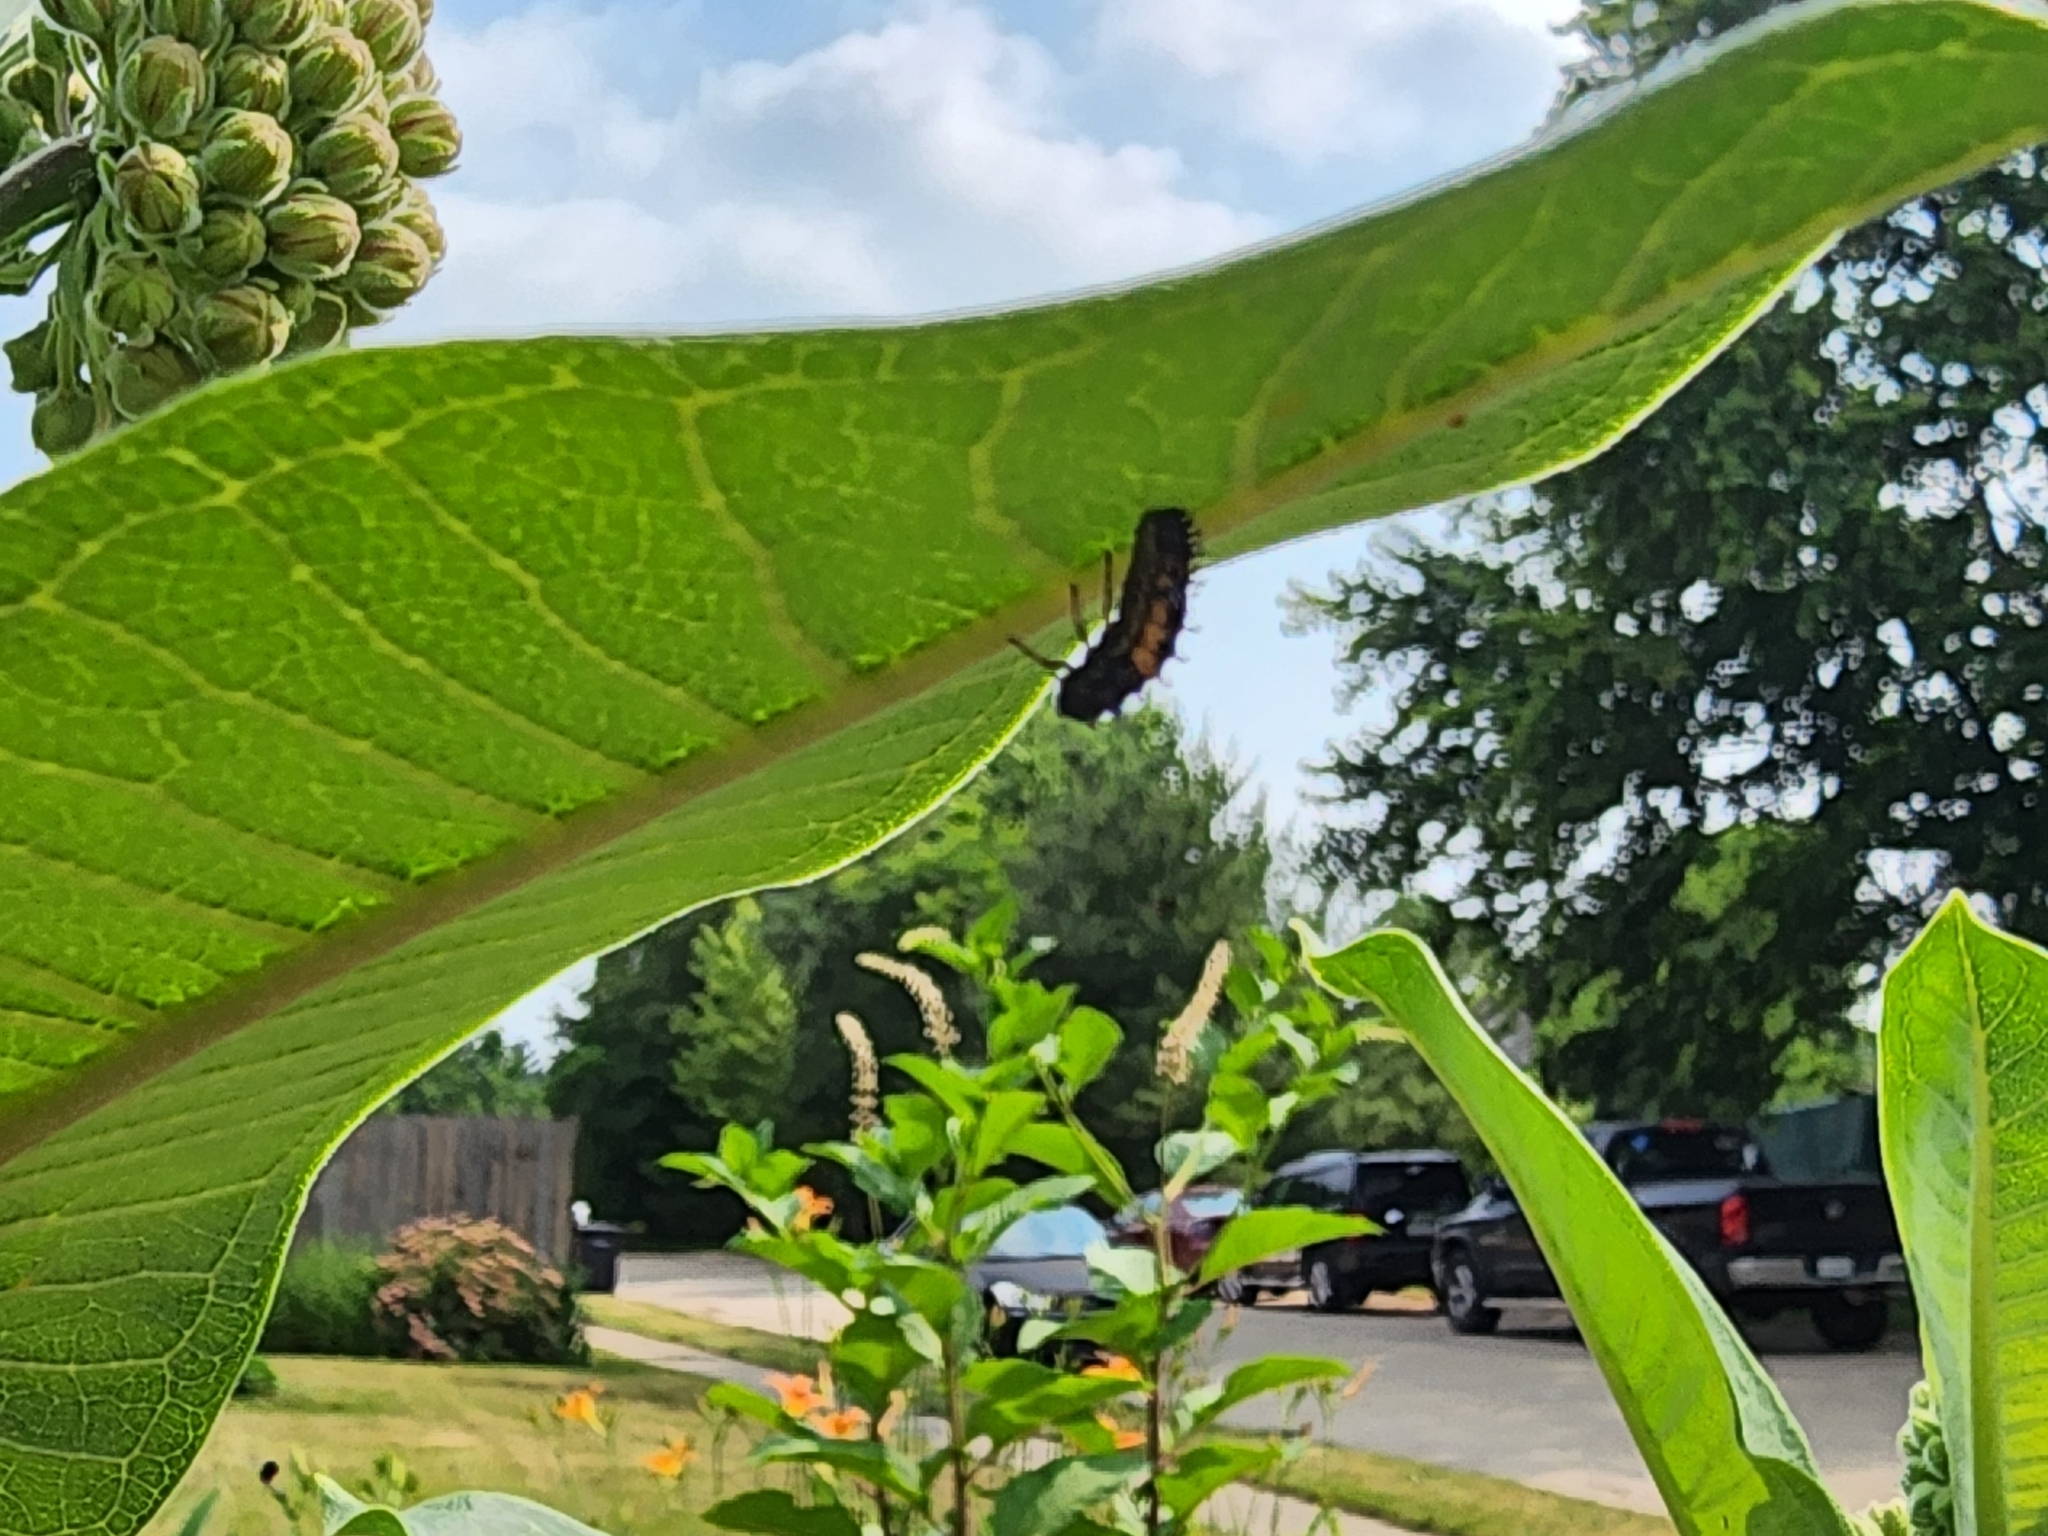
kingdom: Animalia
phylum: Arthropoda
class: Insecta
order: Coleoptera
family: Coccinellidae
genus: Harmonia
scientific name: Harmonia axyridis
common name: Harlequin ladybird
